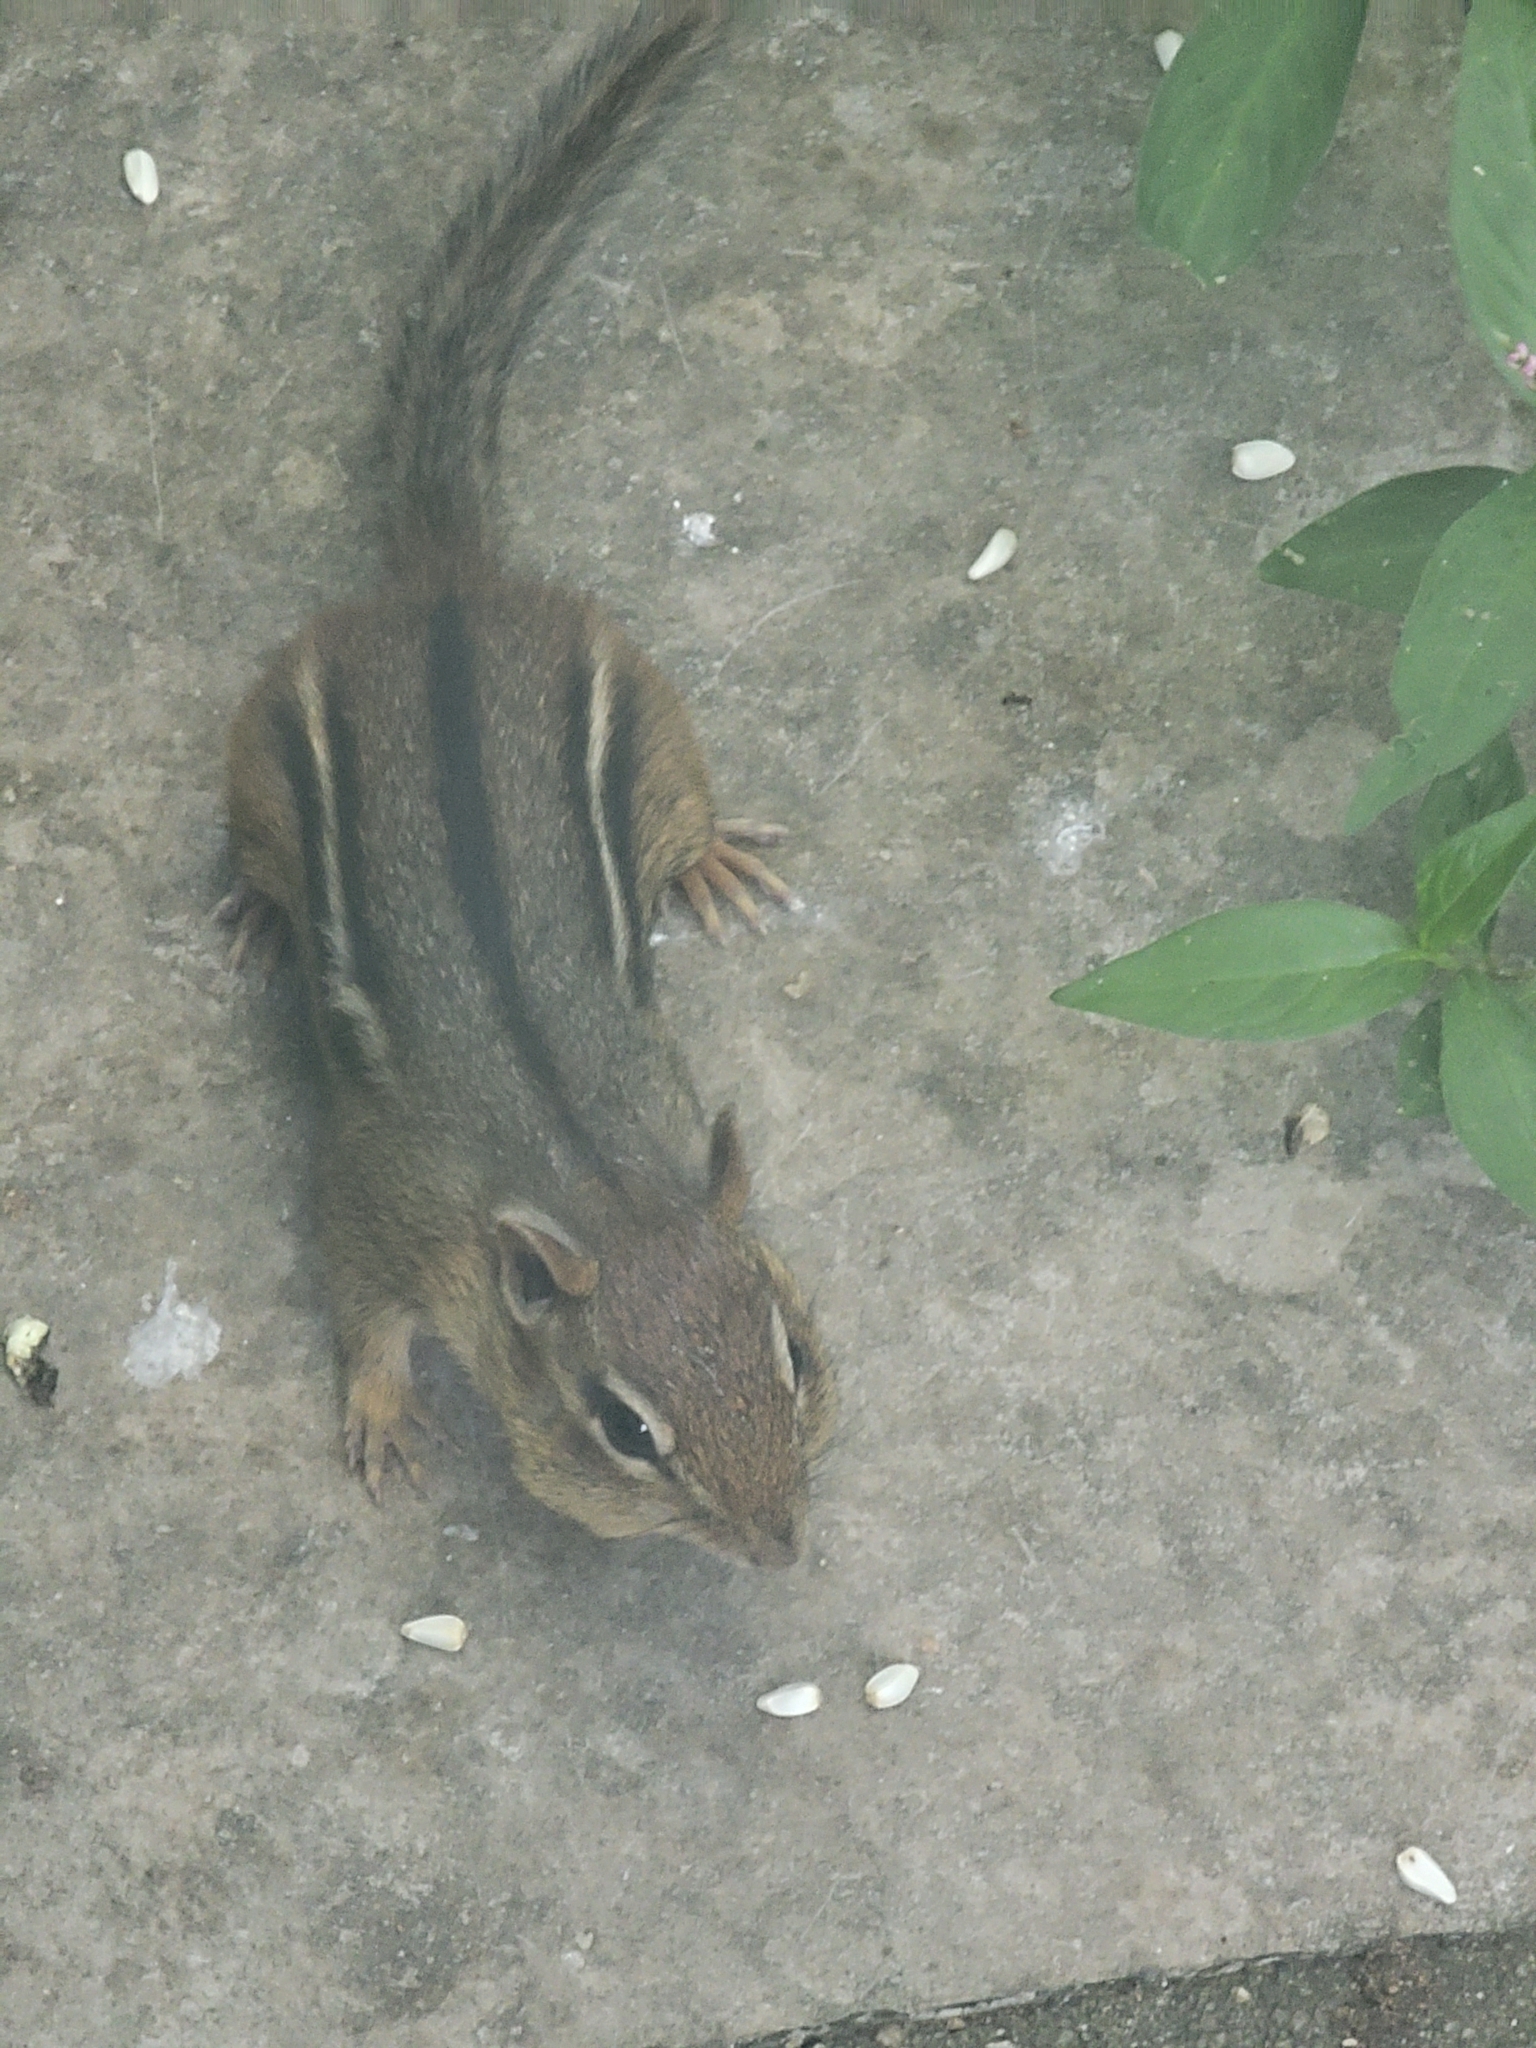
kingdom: Animalia
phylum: Chordata
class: Mammalia
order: Rodentia
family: Sciuridae
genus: Tamias
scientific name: Tamias striatus
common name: Eastern chipmunk
